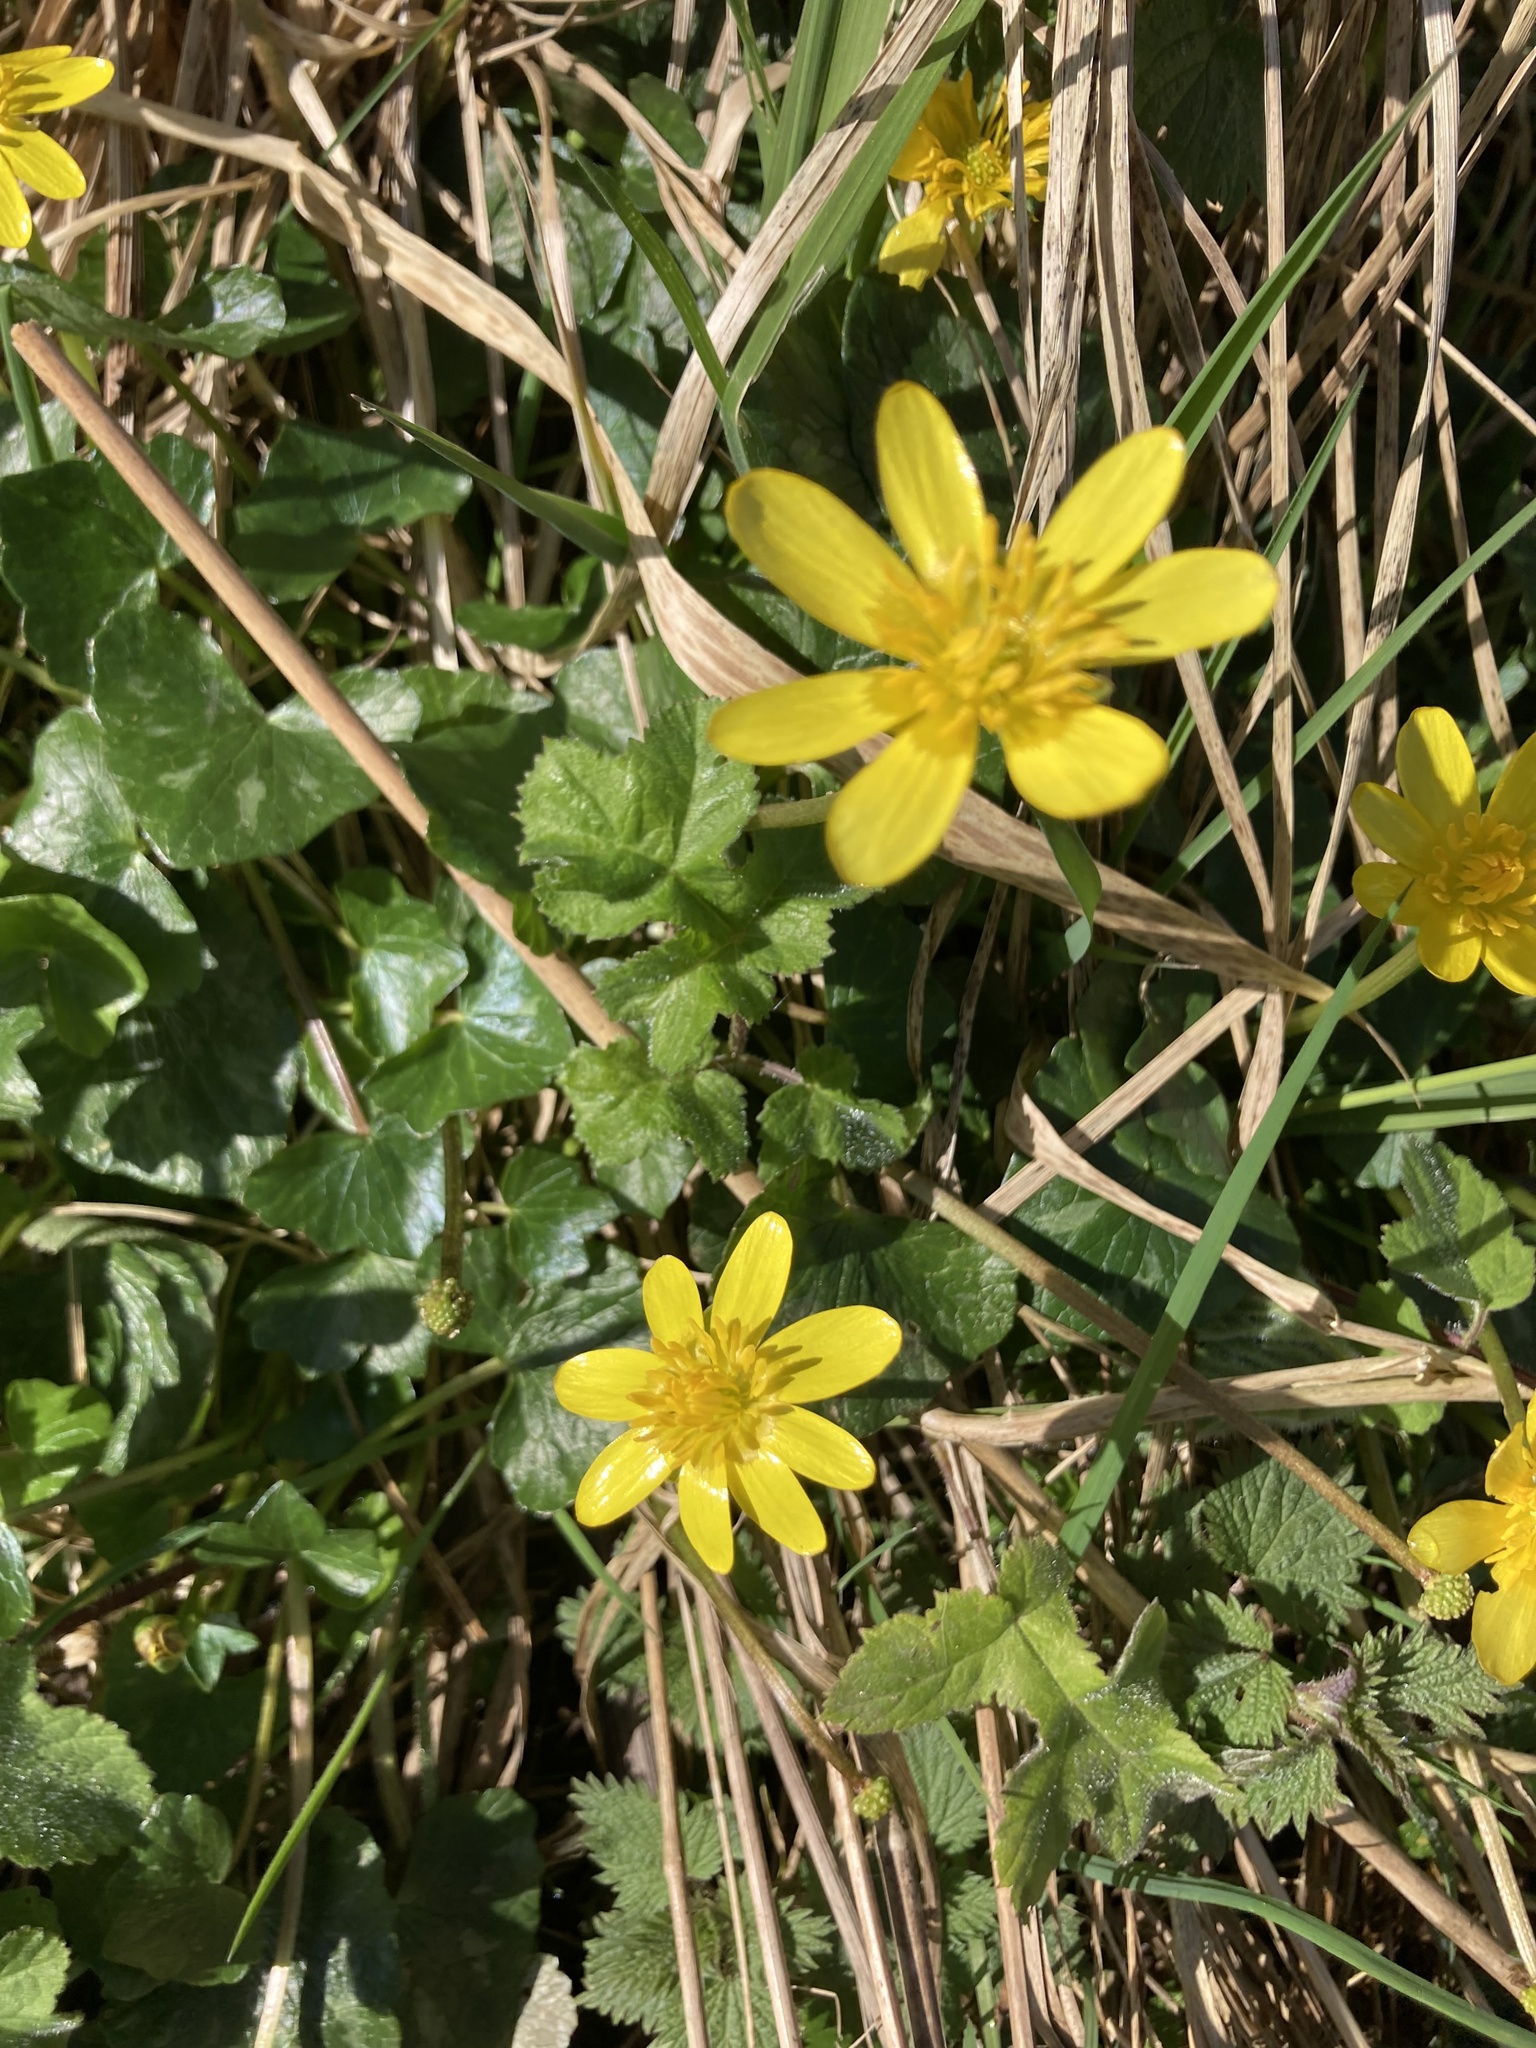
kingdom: Plantae
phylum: Tracheophyta
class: Magnoliopsida
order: Ranunculales
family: Ranunculaceae
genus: Ficaria
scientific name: Ficaria verna
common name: Lesser celandine
